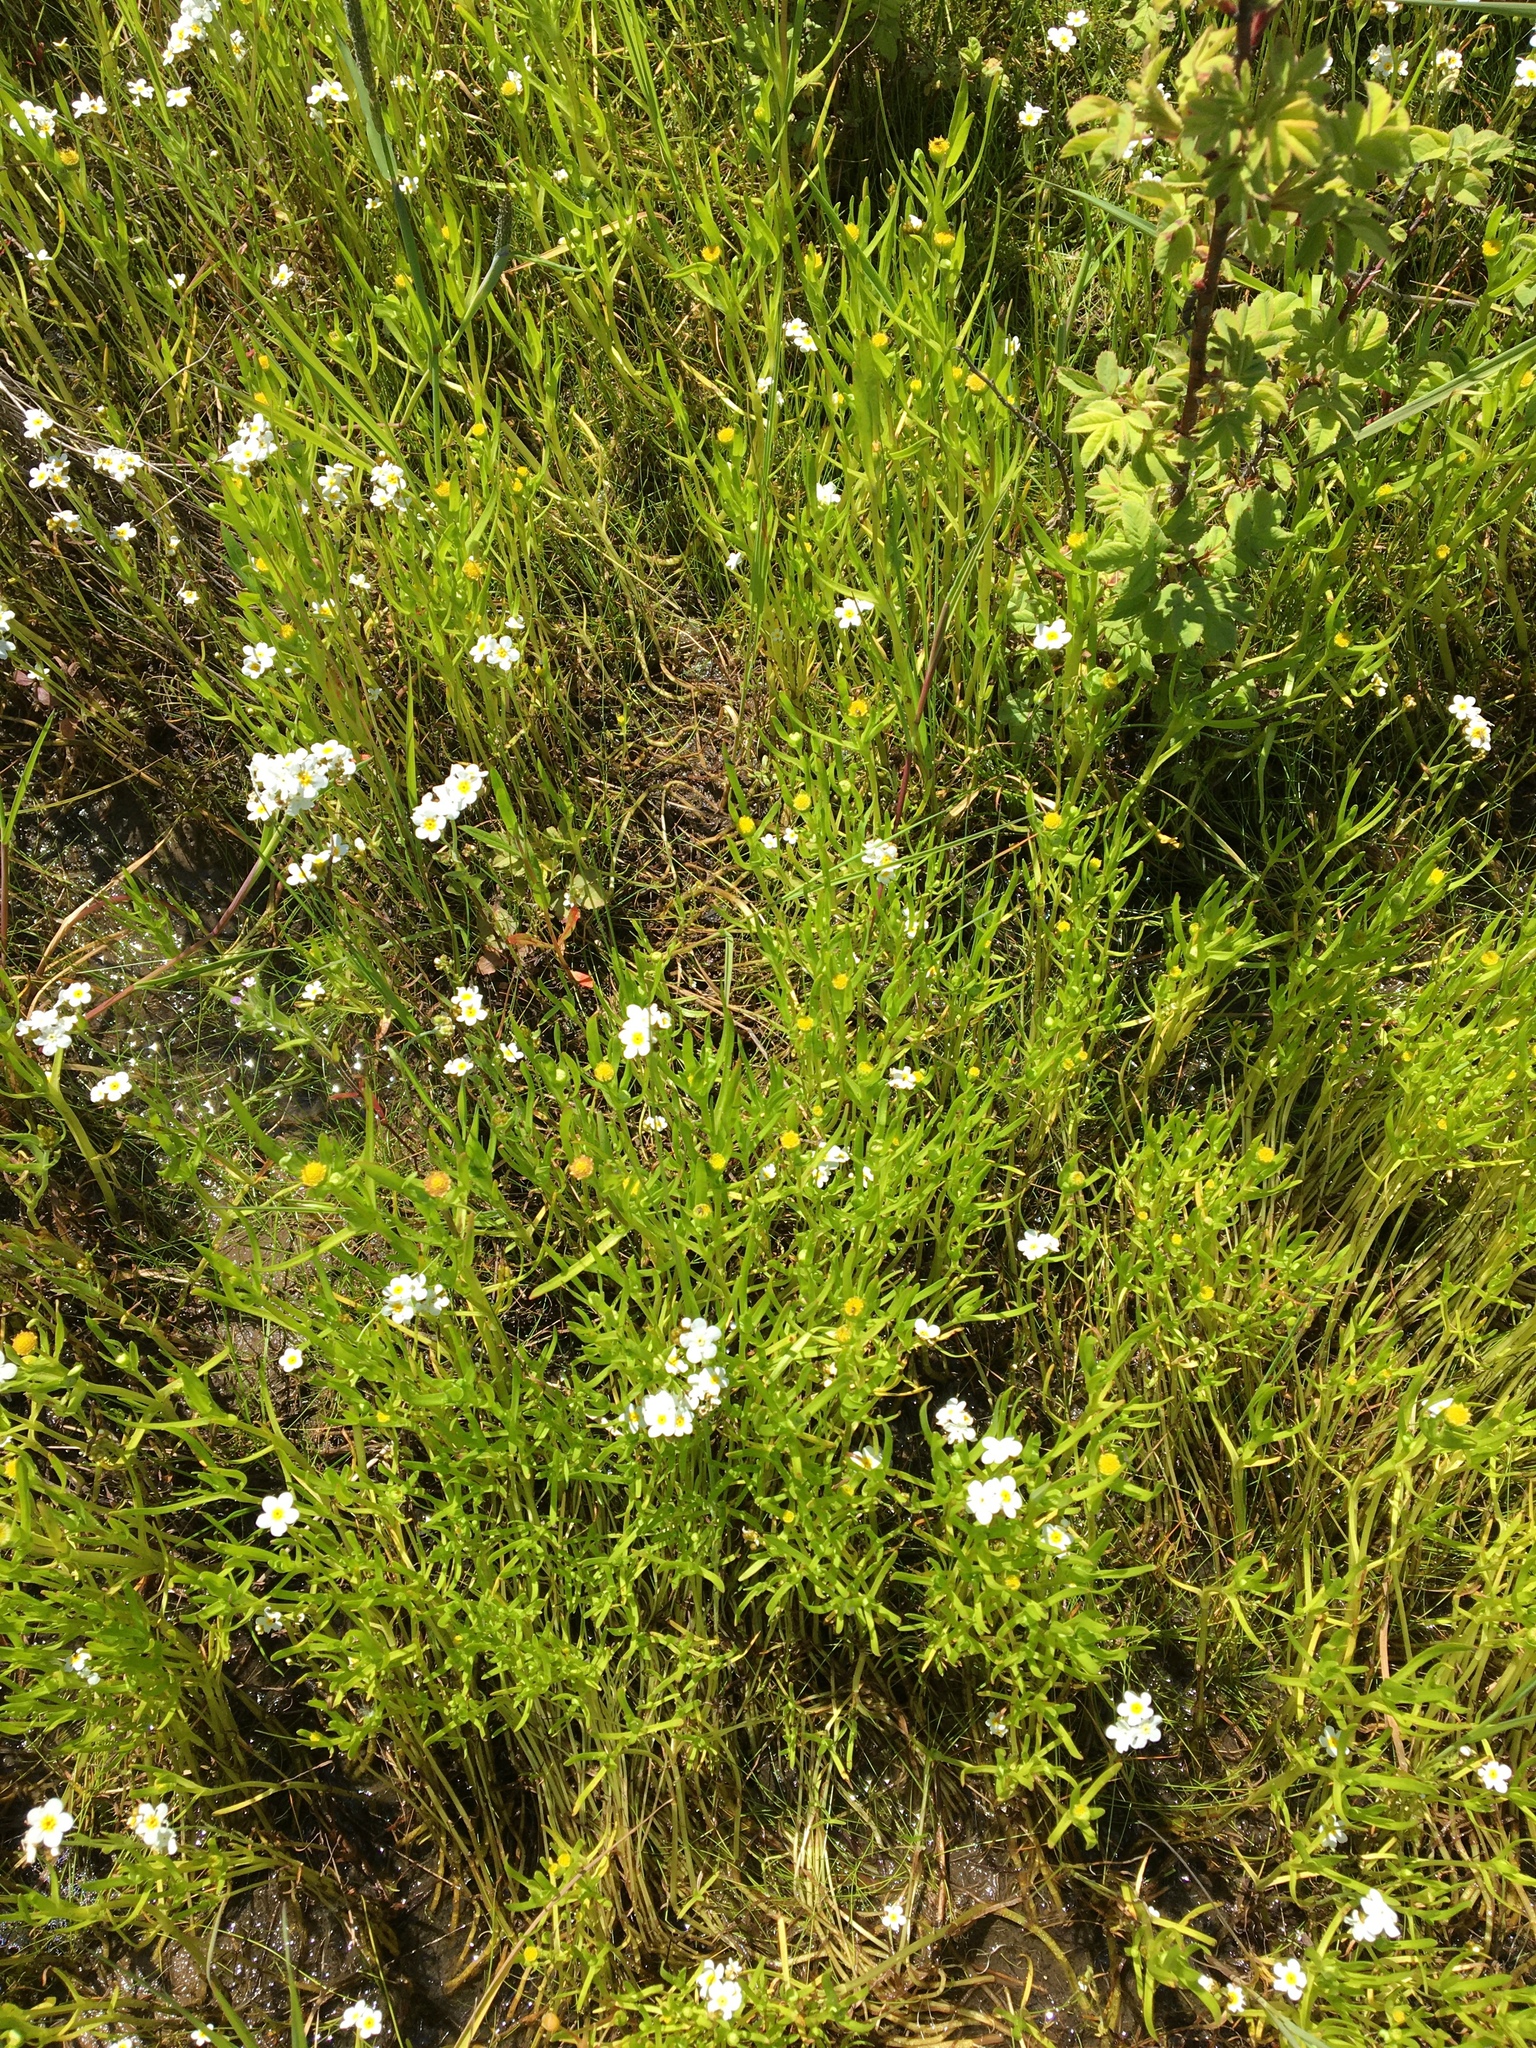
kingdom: Plantae
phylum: Tracheophyta
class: Magnoliopsida
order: Asterales
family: Asteraceae
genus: Lasthenia
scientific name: Lasthenia glaberrima
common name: Smooth goldfields
